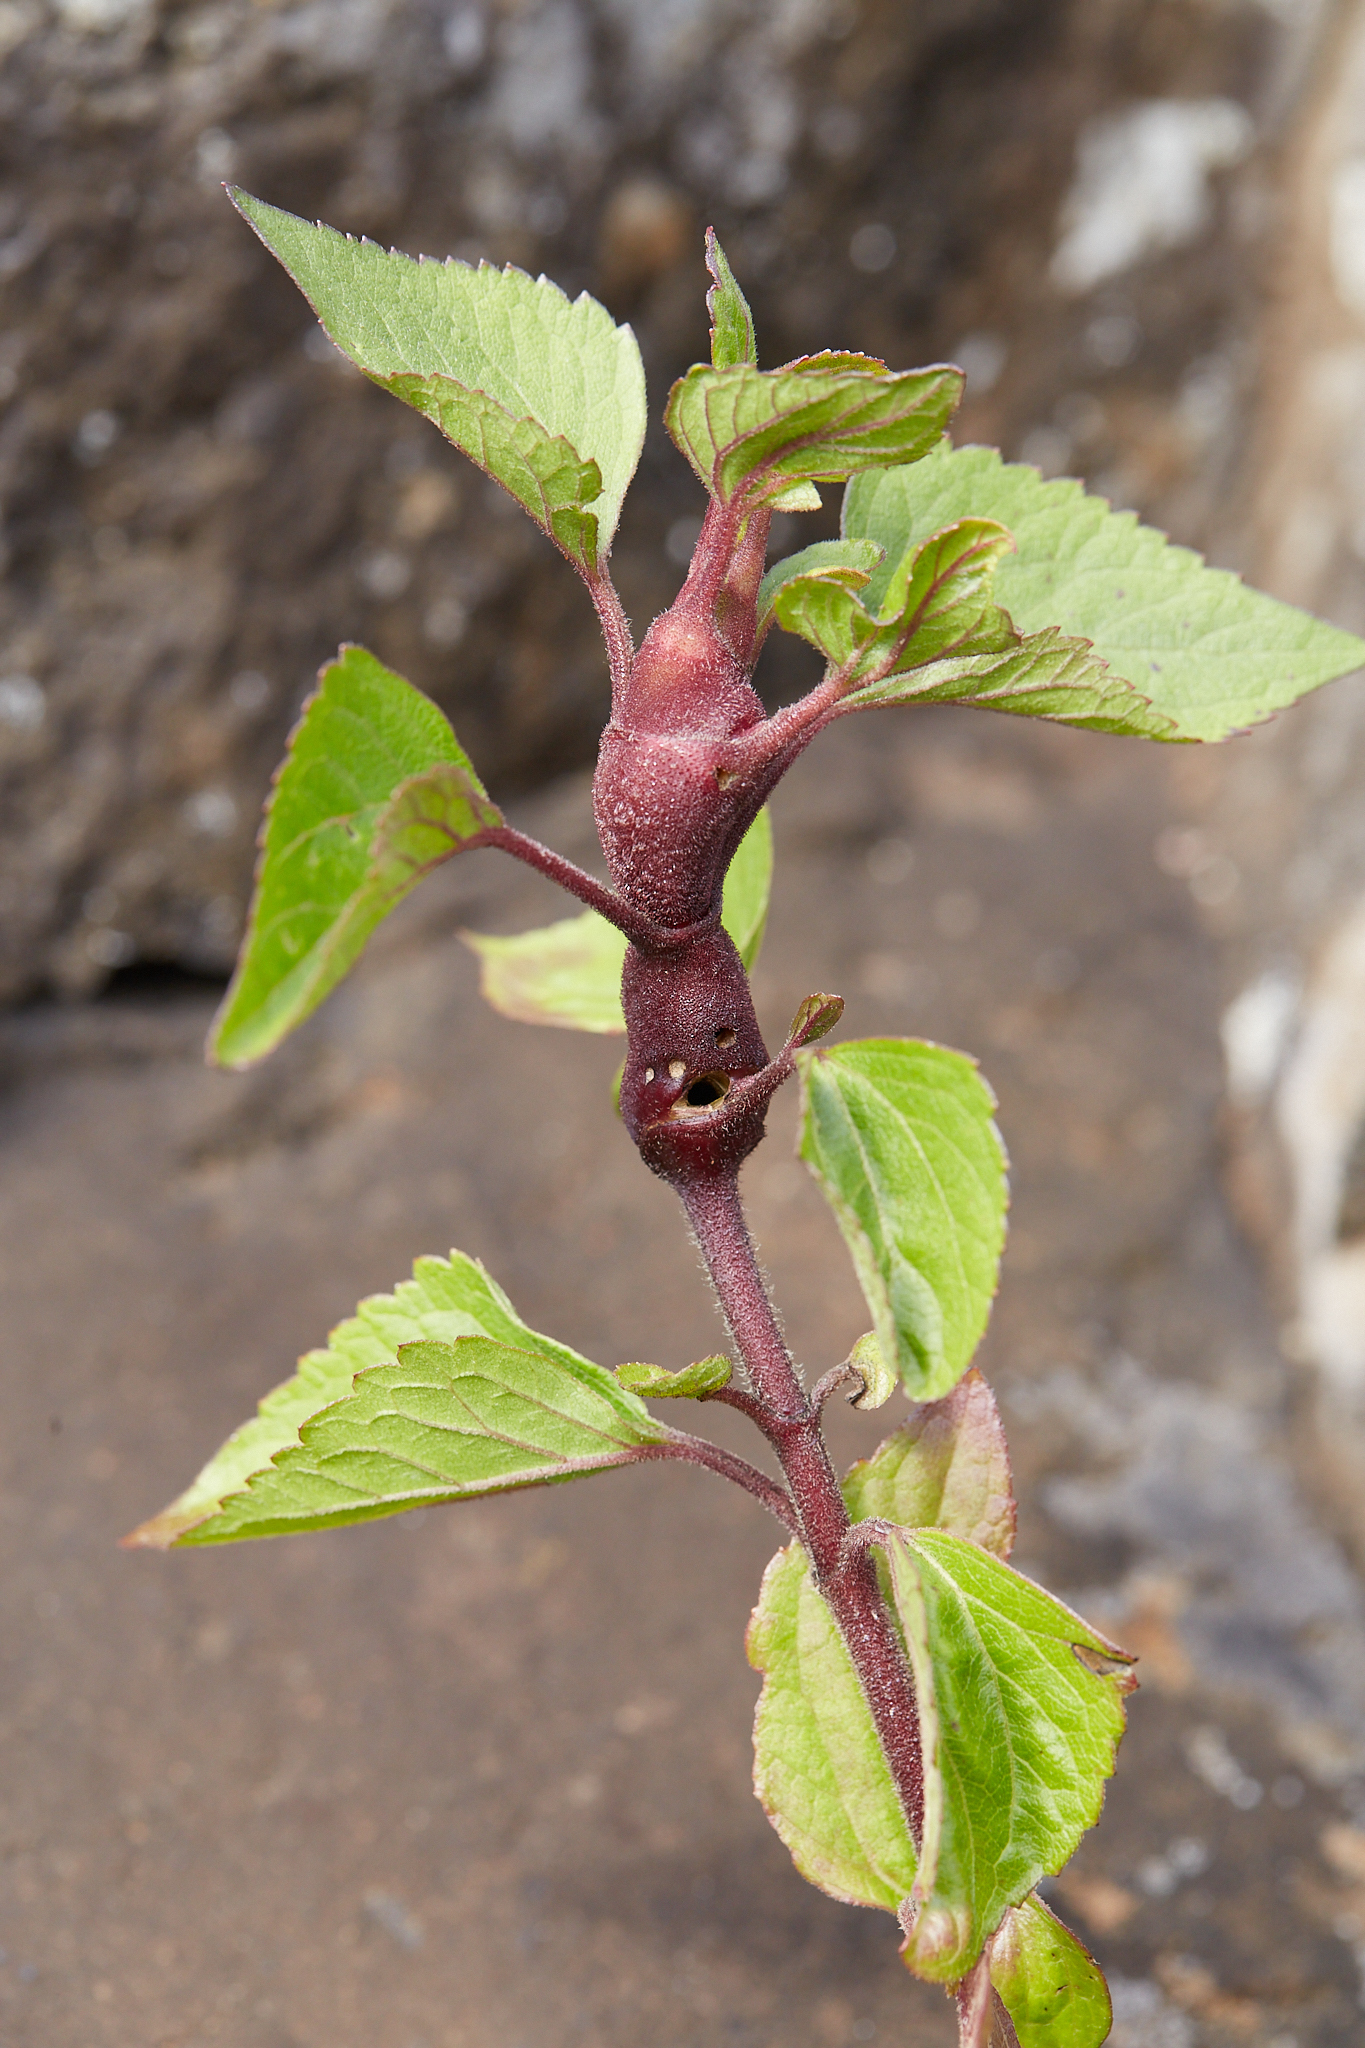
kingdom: Animalia
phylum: Arthropoda
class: Insecta
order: Diptera
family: Tephritidae
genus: Procecidochares
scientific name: Procecidochares utilis
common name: Eupatorium gall fly
